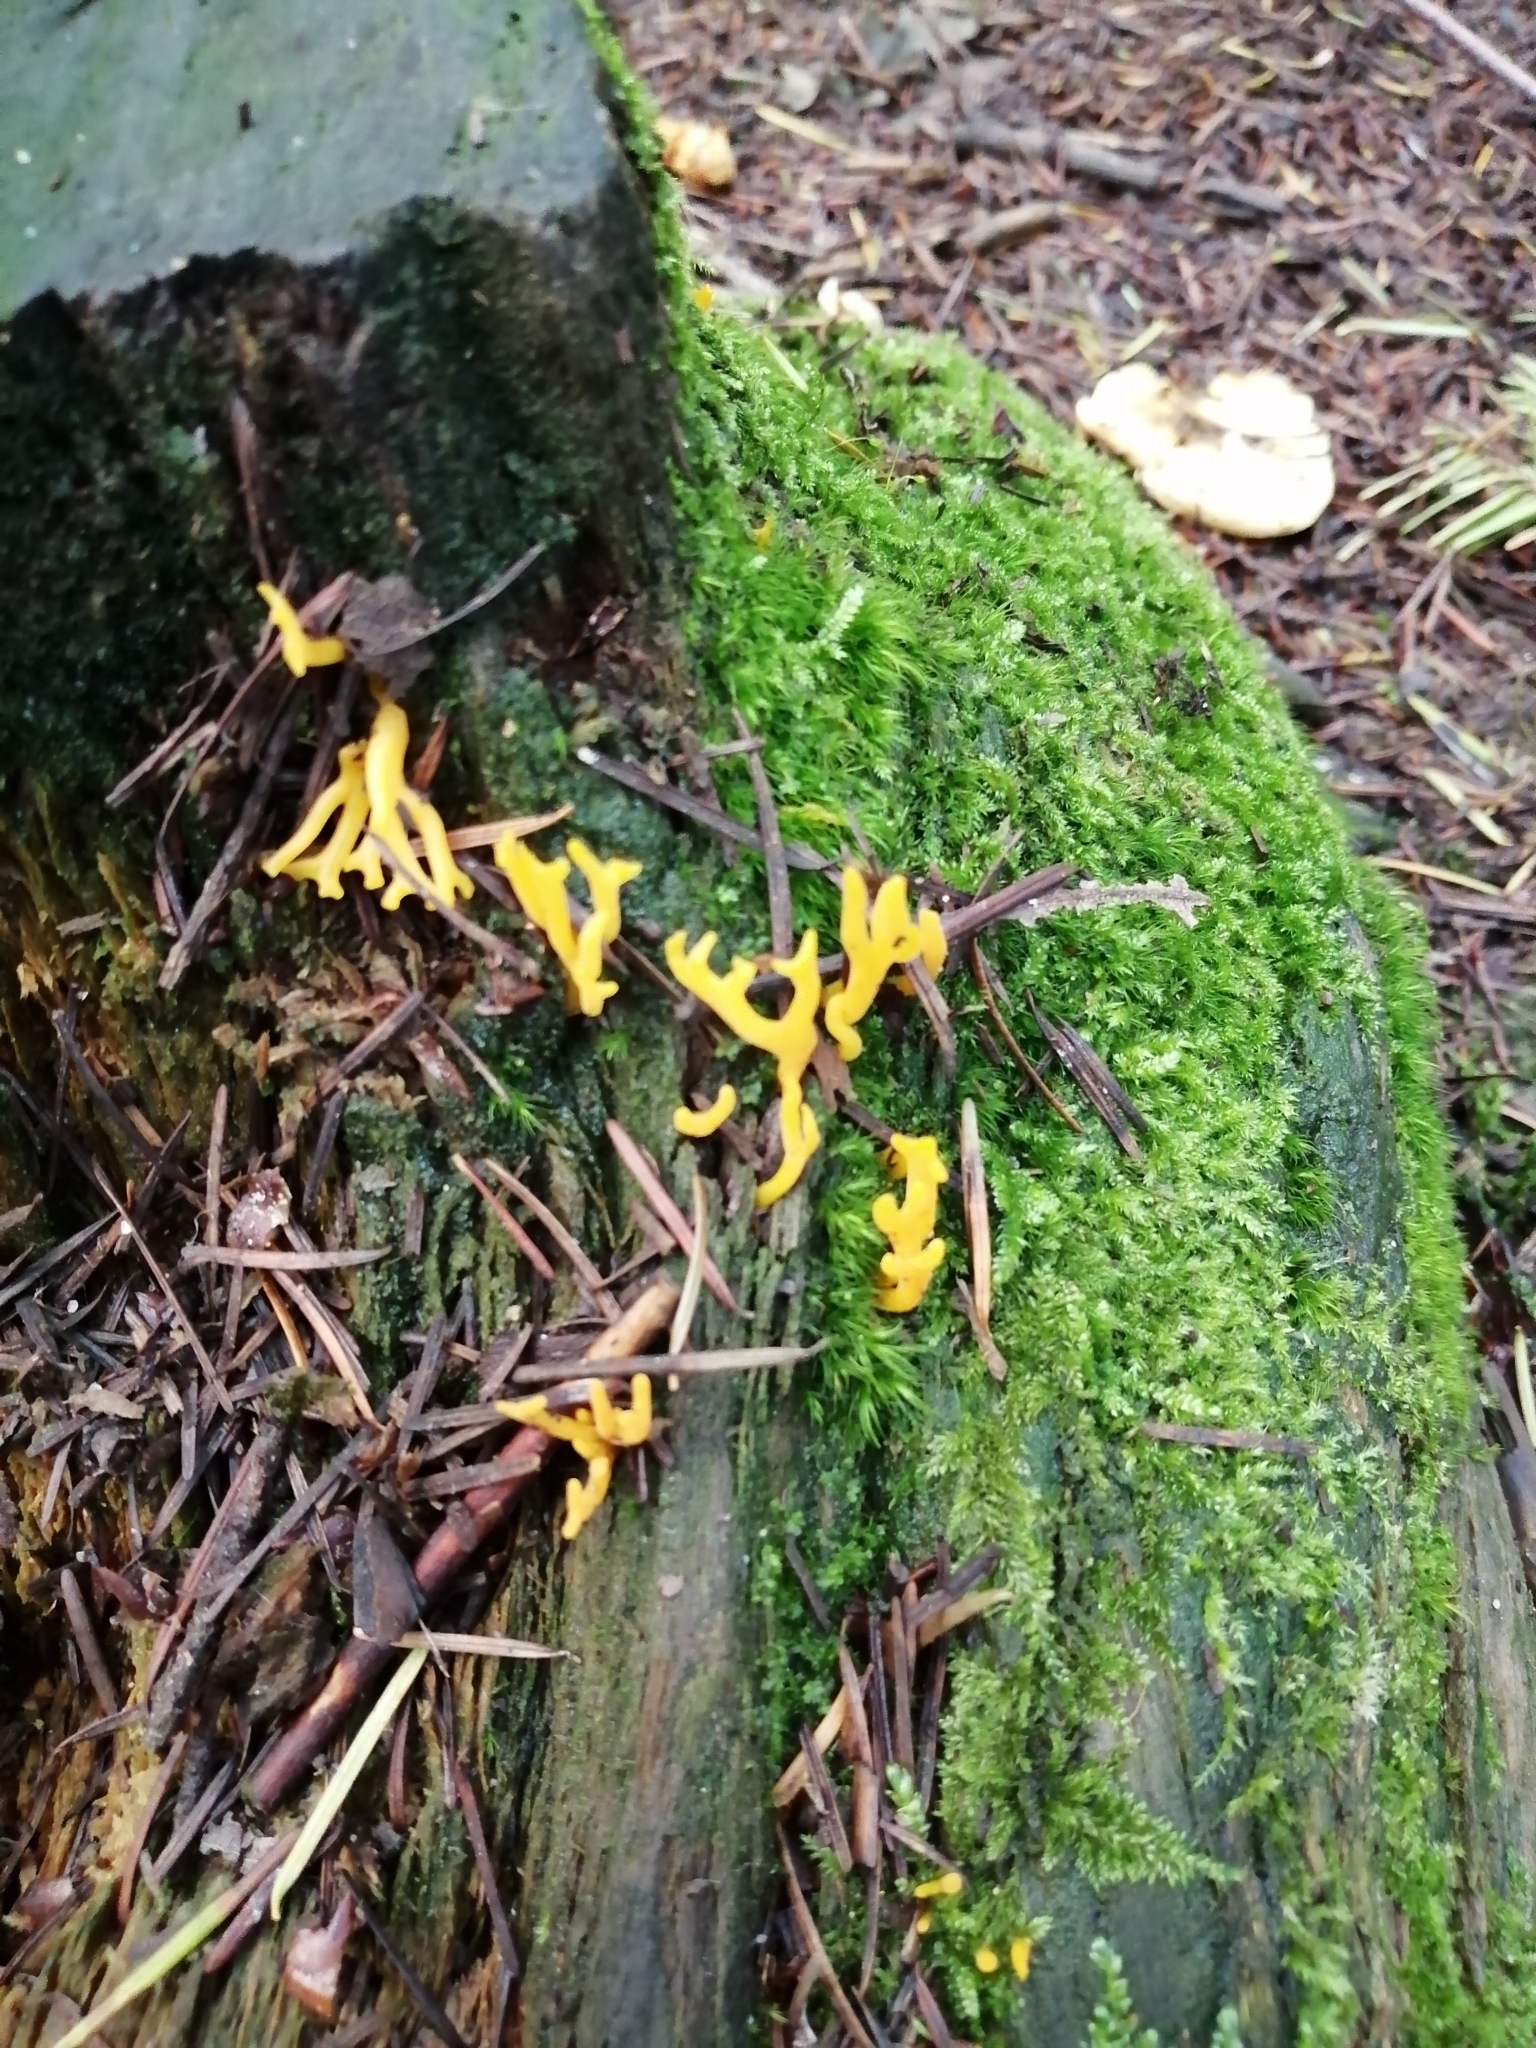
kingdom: Fungi
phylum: Basidiomycota
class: Dacrymycetes
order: Dacrymycetales
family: Dacrymycetaceae
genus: Calocera
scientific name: Calocera viscosa
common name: Yellow stagshorn
